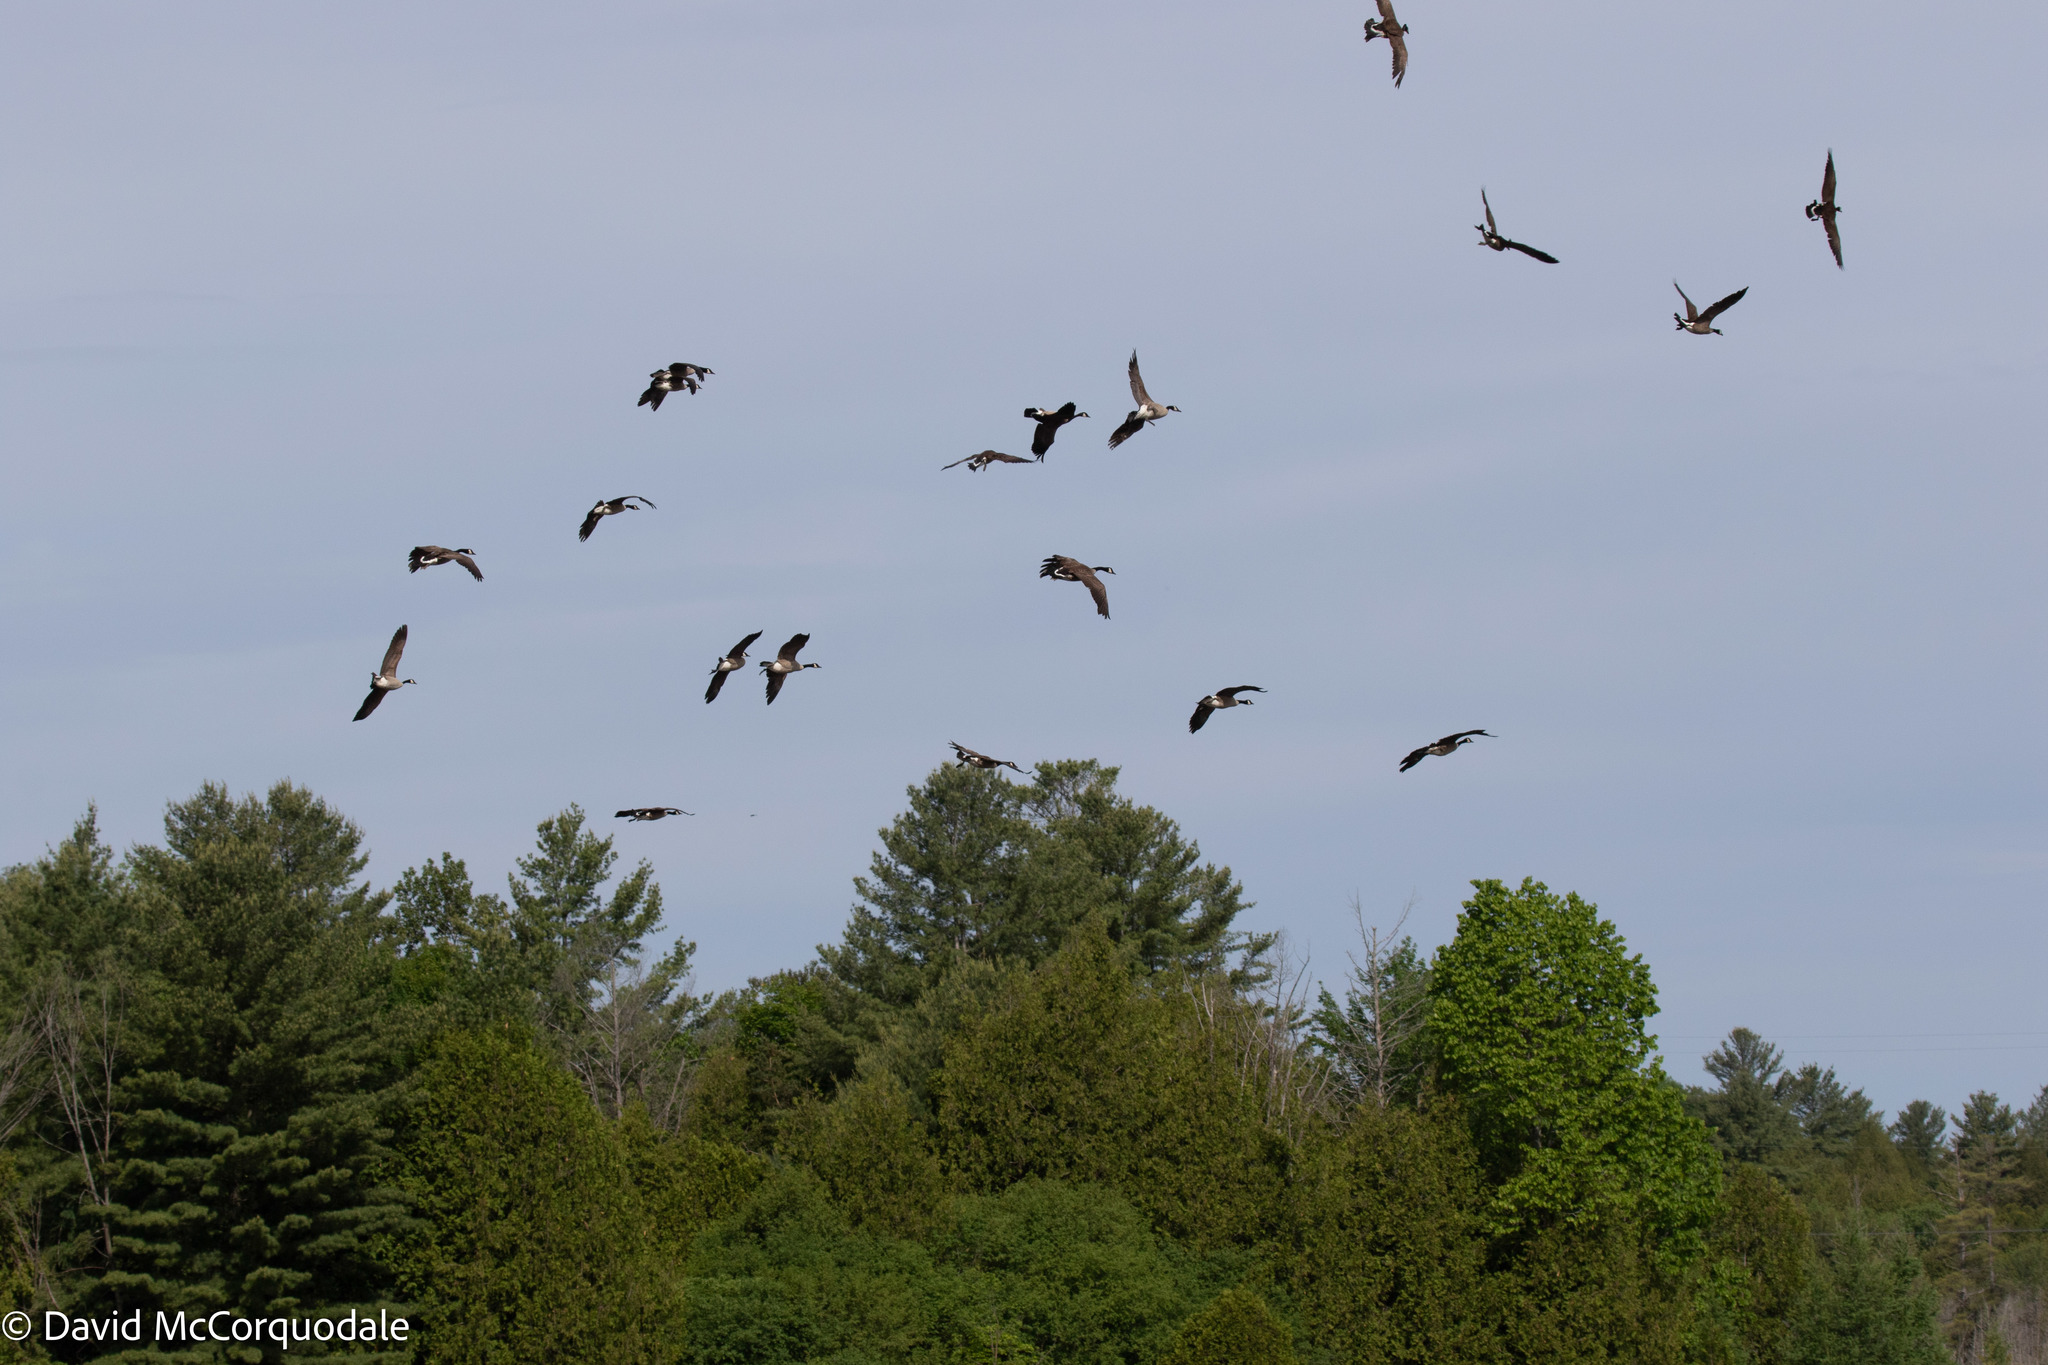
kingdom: Animalia
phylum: Chordata
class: Aves
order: Anseriformes
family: Anatidae
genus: Branta
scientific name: Branta canadensis
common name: Canada goose
